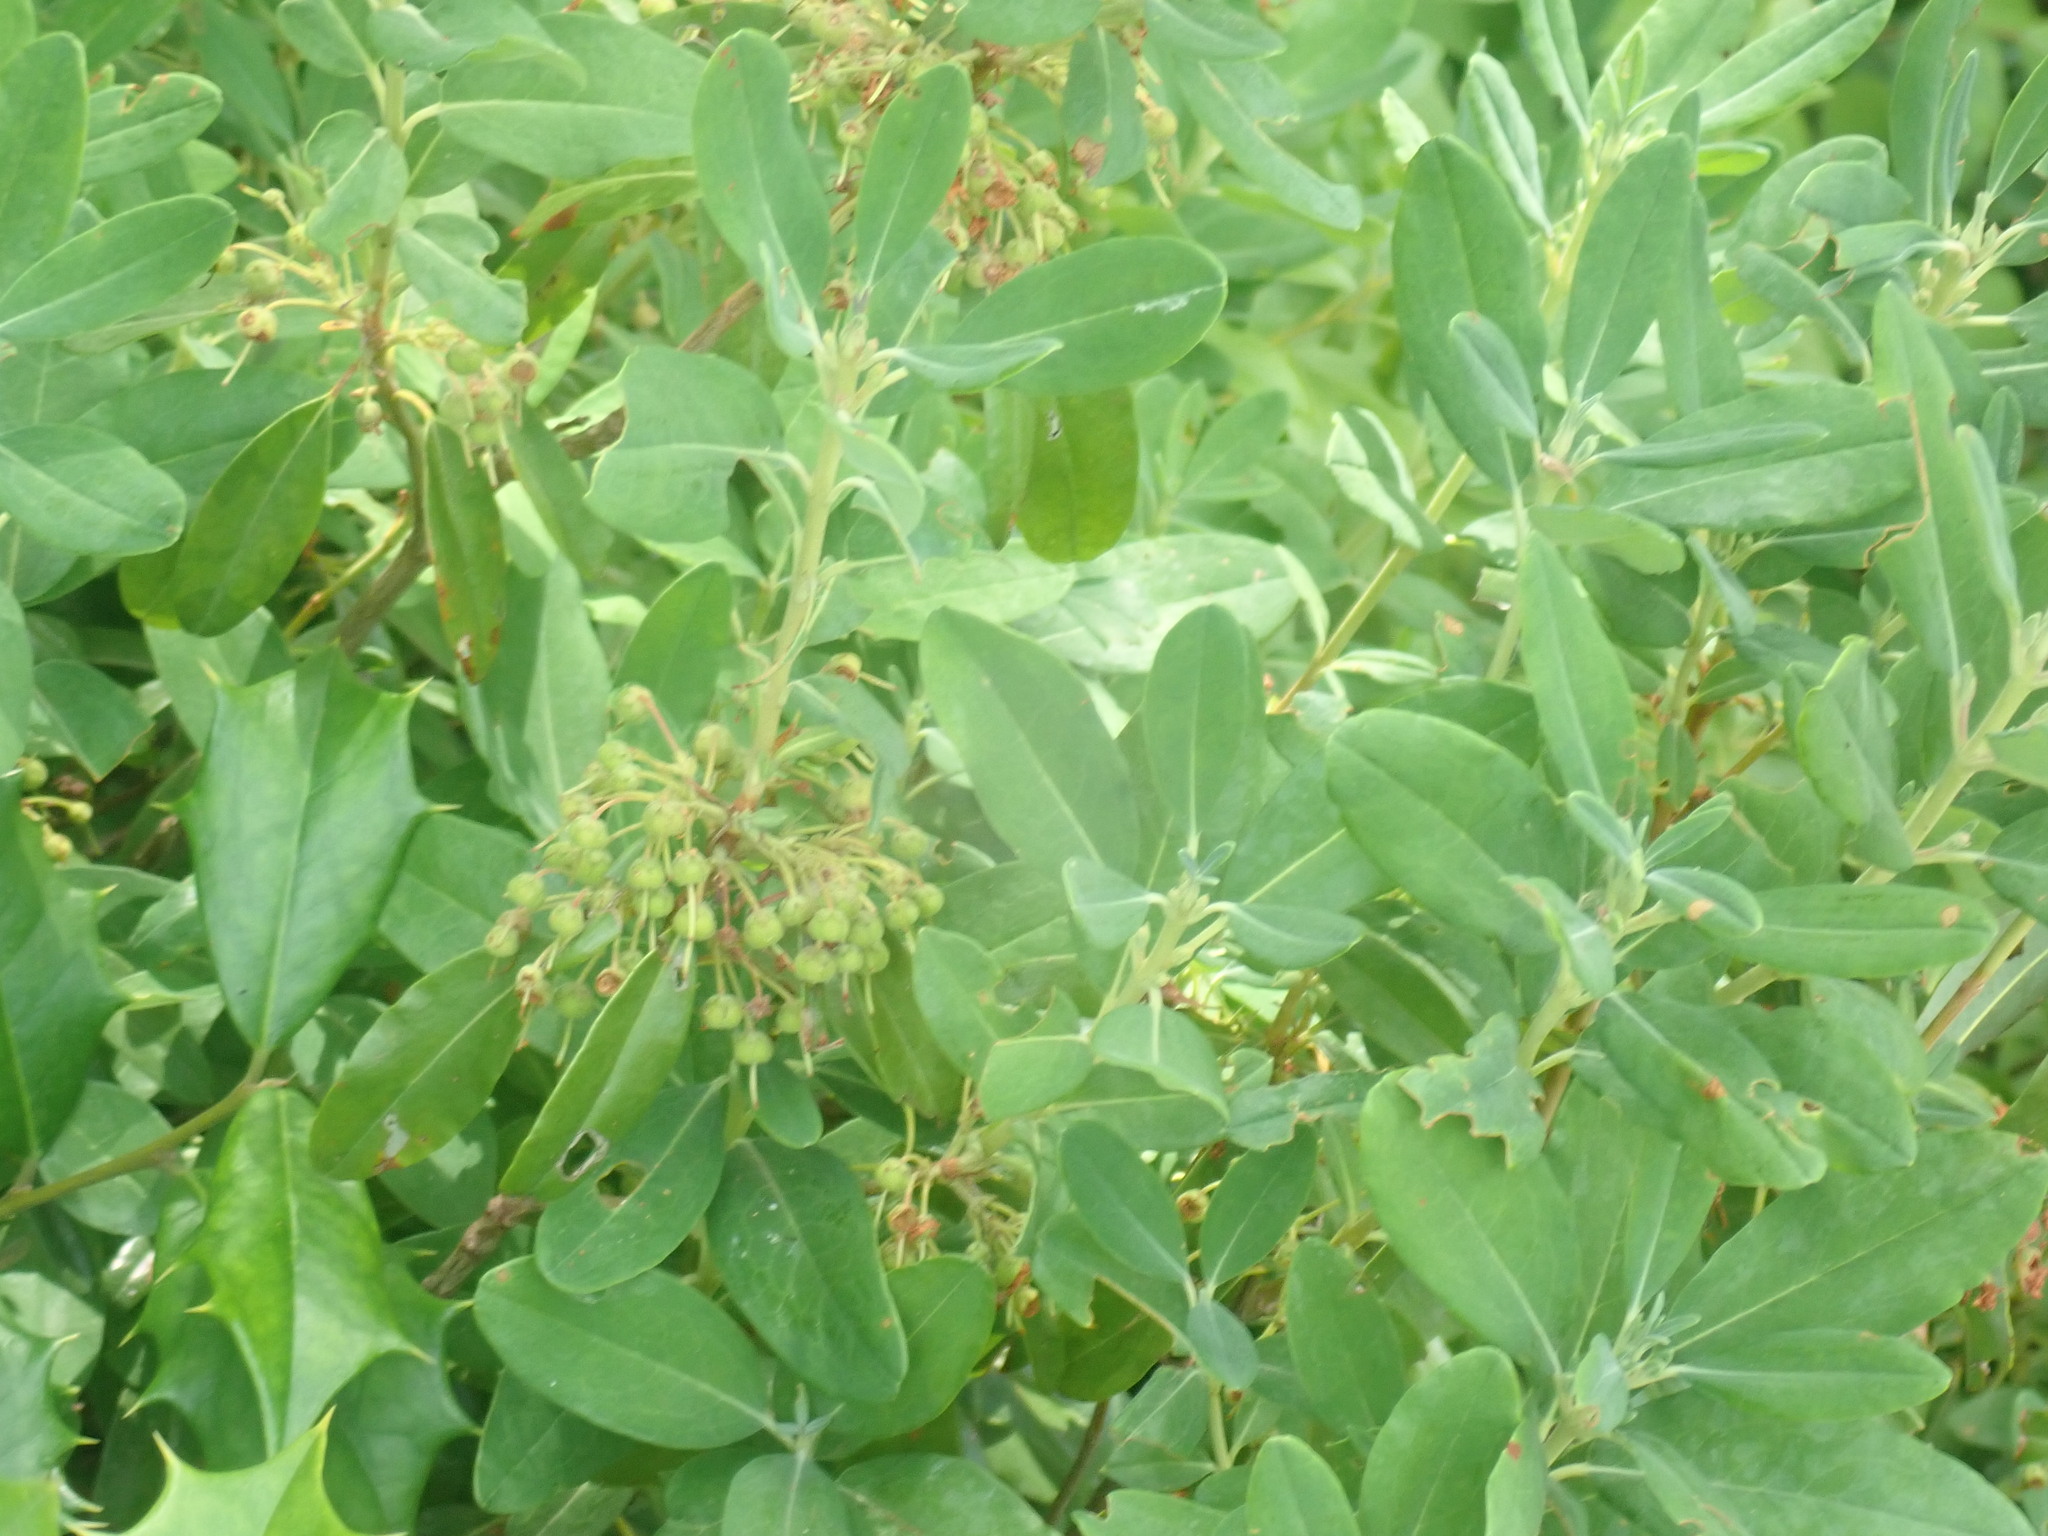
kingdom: Plantae
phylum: Tracheophyta
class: Magnoliopsida
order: Ericales
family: Ericaceae
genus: Kalmia
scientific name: Kalmia angustifolia
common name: Sheep-laurel
